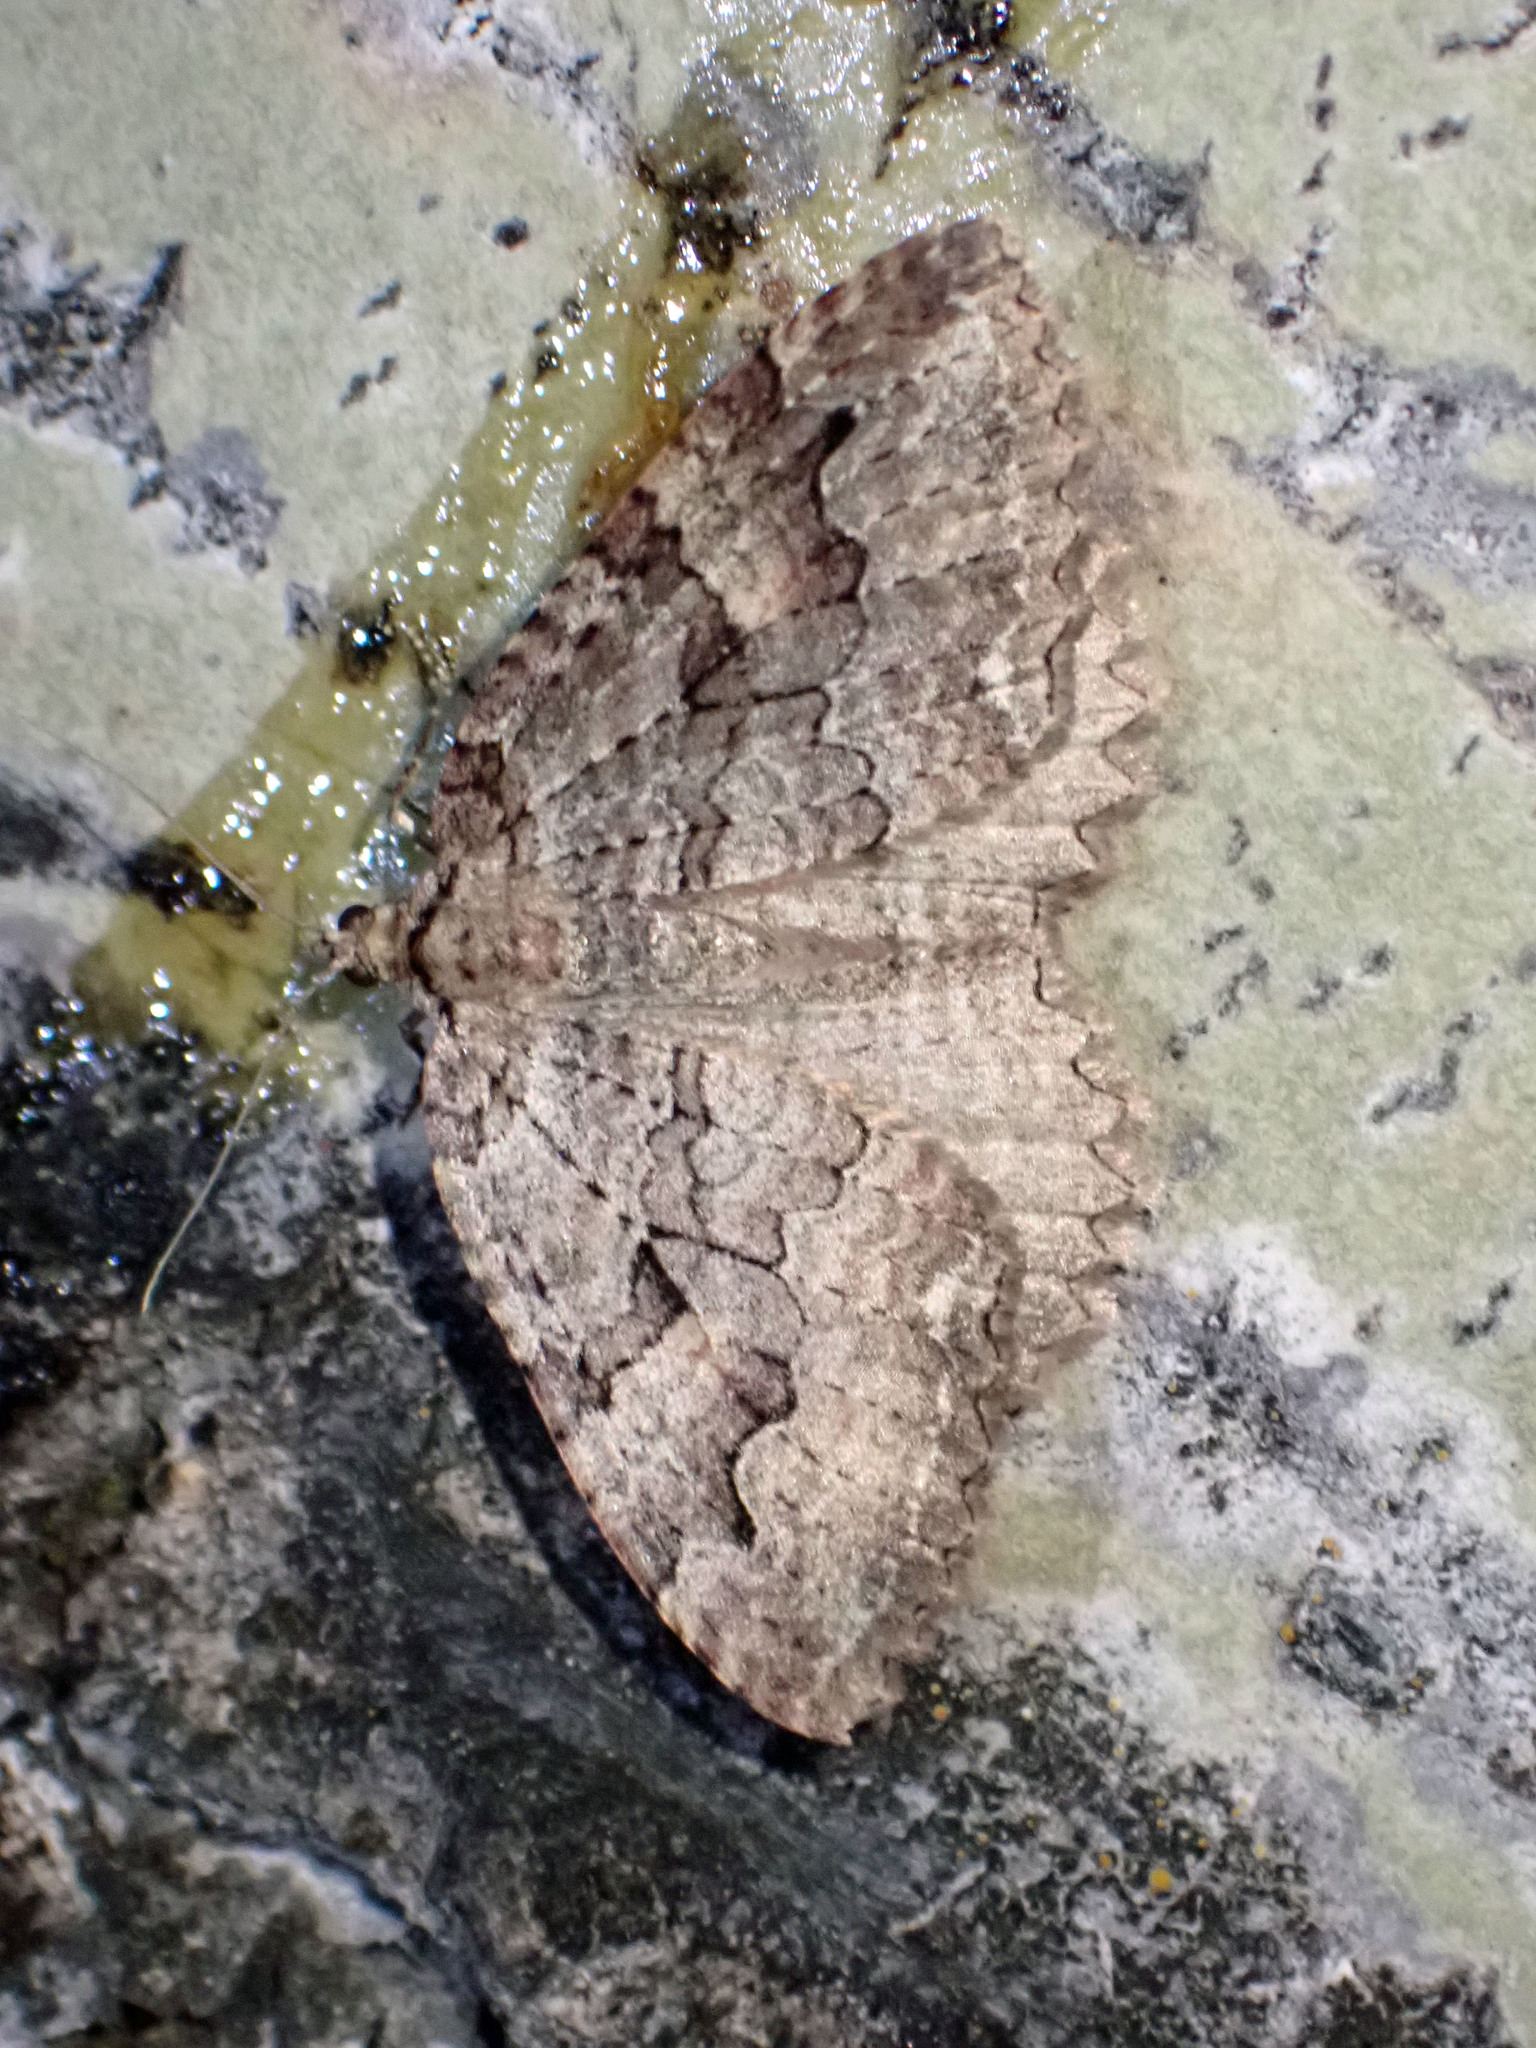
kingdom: Animalia
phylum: Arthropoda
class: Insecta
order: Lepidoptera
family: Geometridae
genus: Triphosa
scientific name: Triphosa haesitata
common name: Tissue moth
